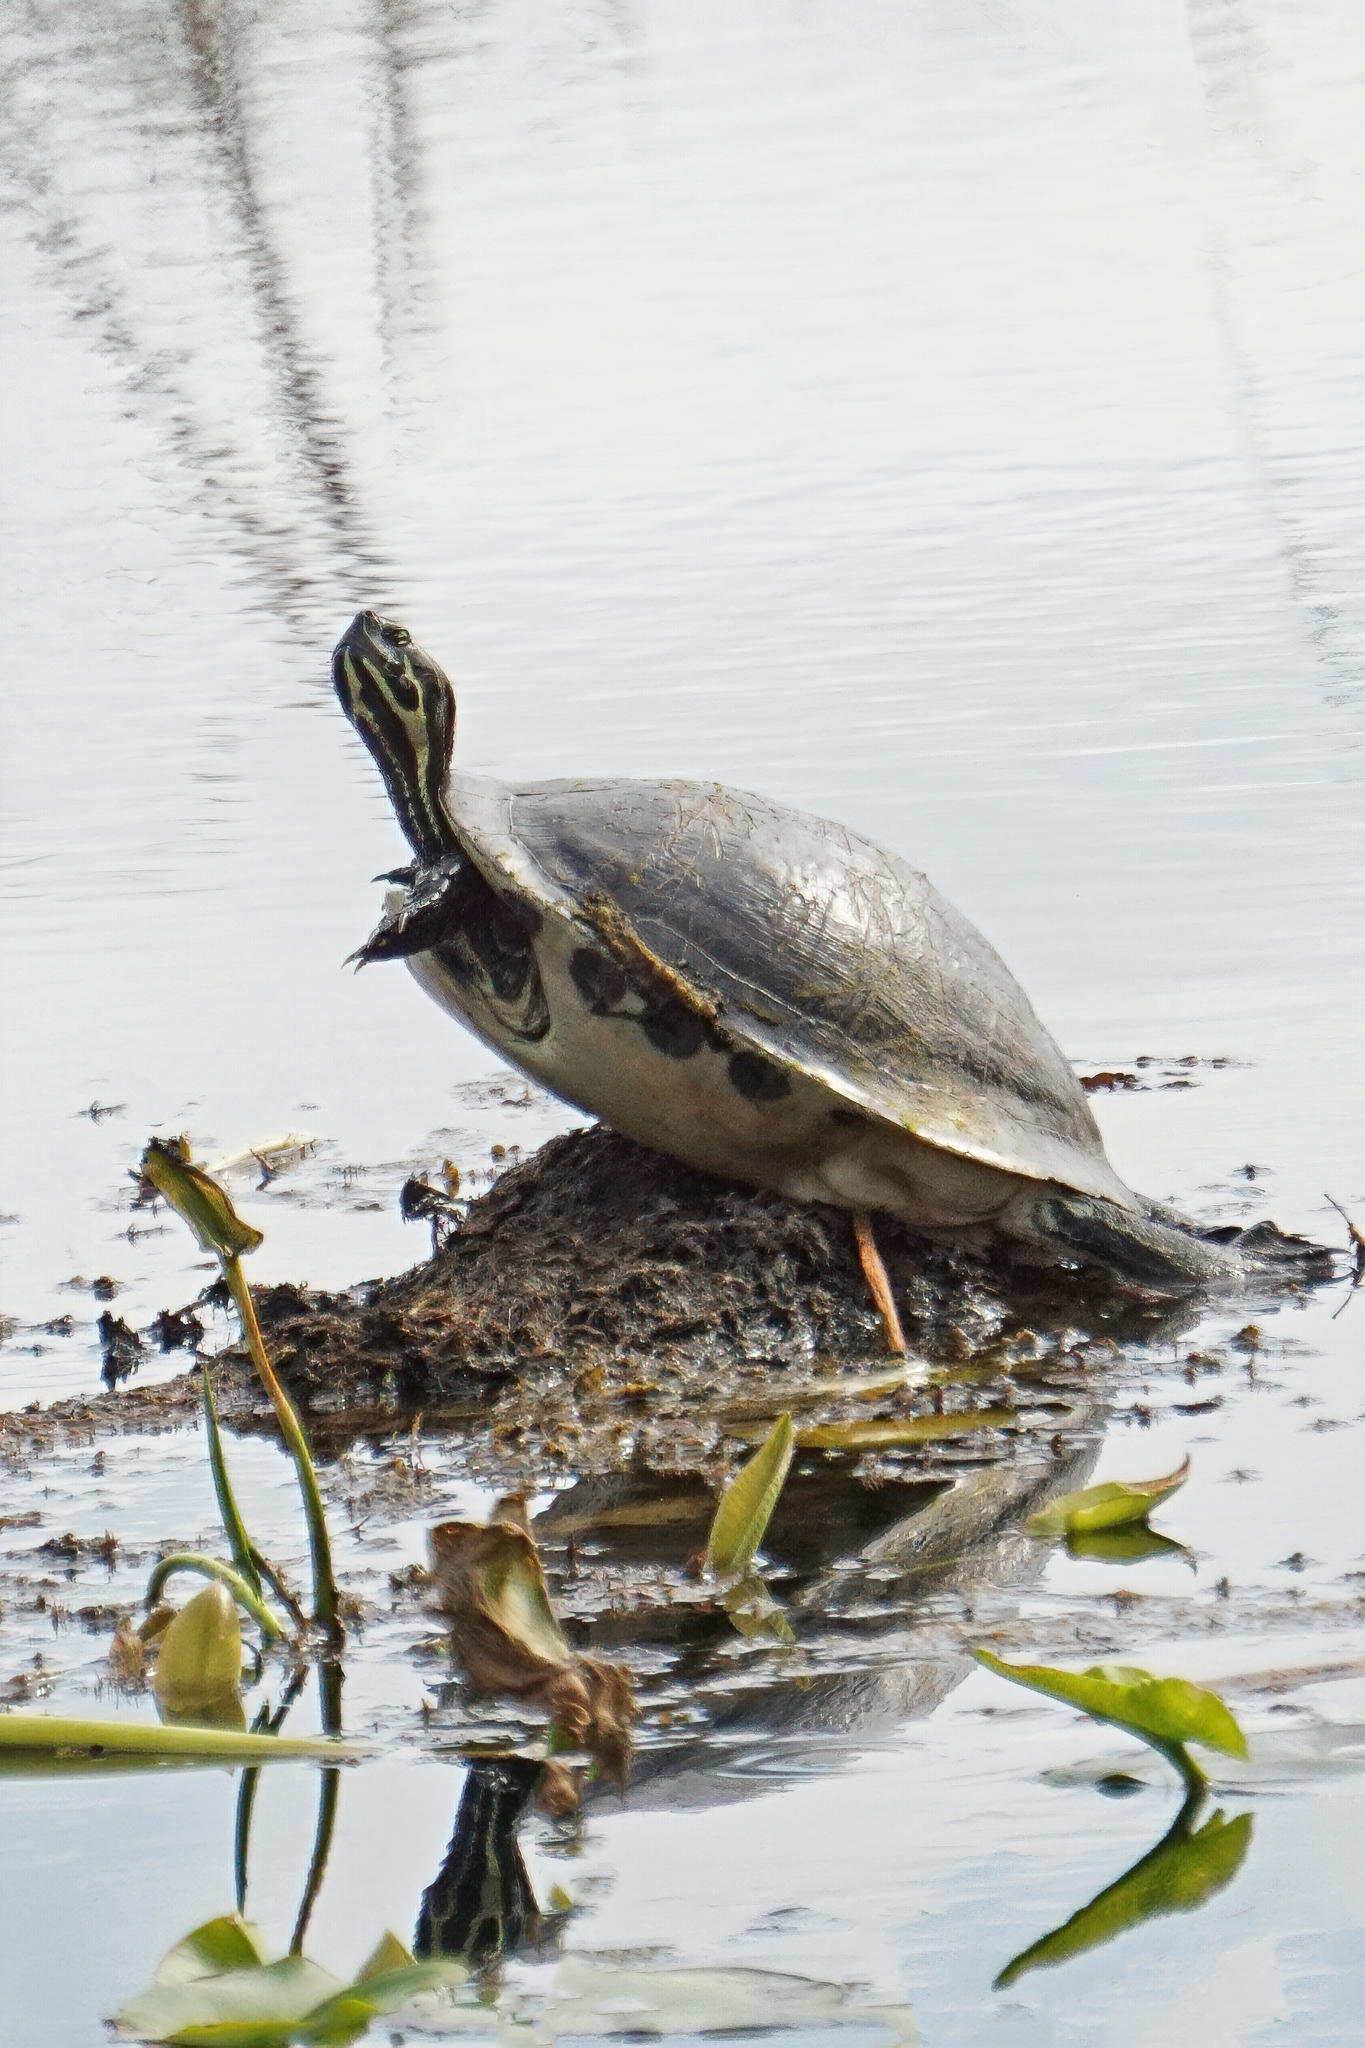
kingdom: Animalia
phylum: Chordata
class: Testudines
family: Emydidae
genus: Pseudemys
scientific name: Pseudemys peninsularis
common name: Peninsula cooter
